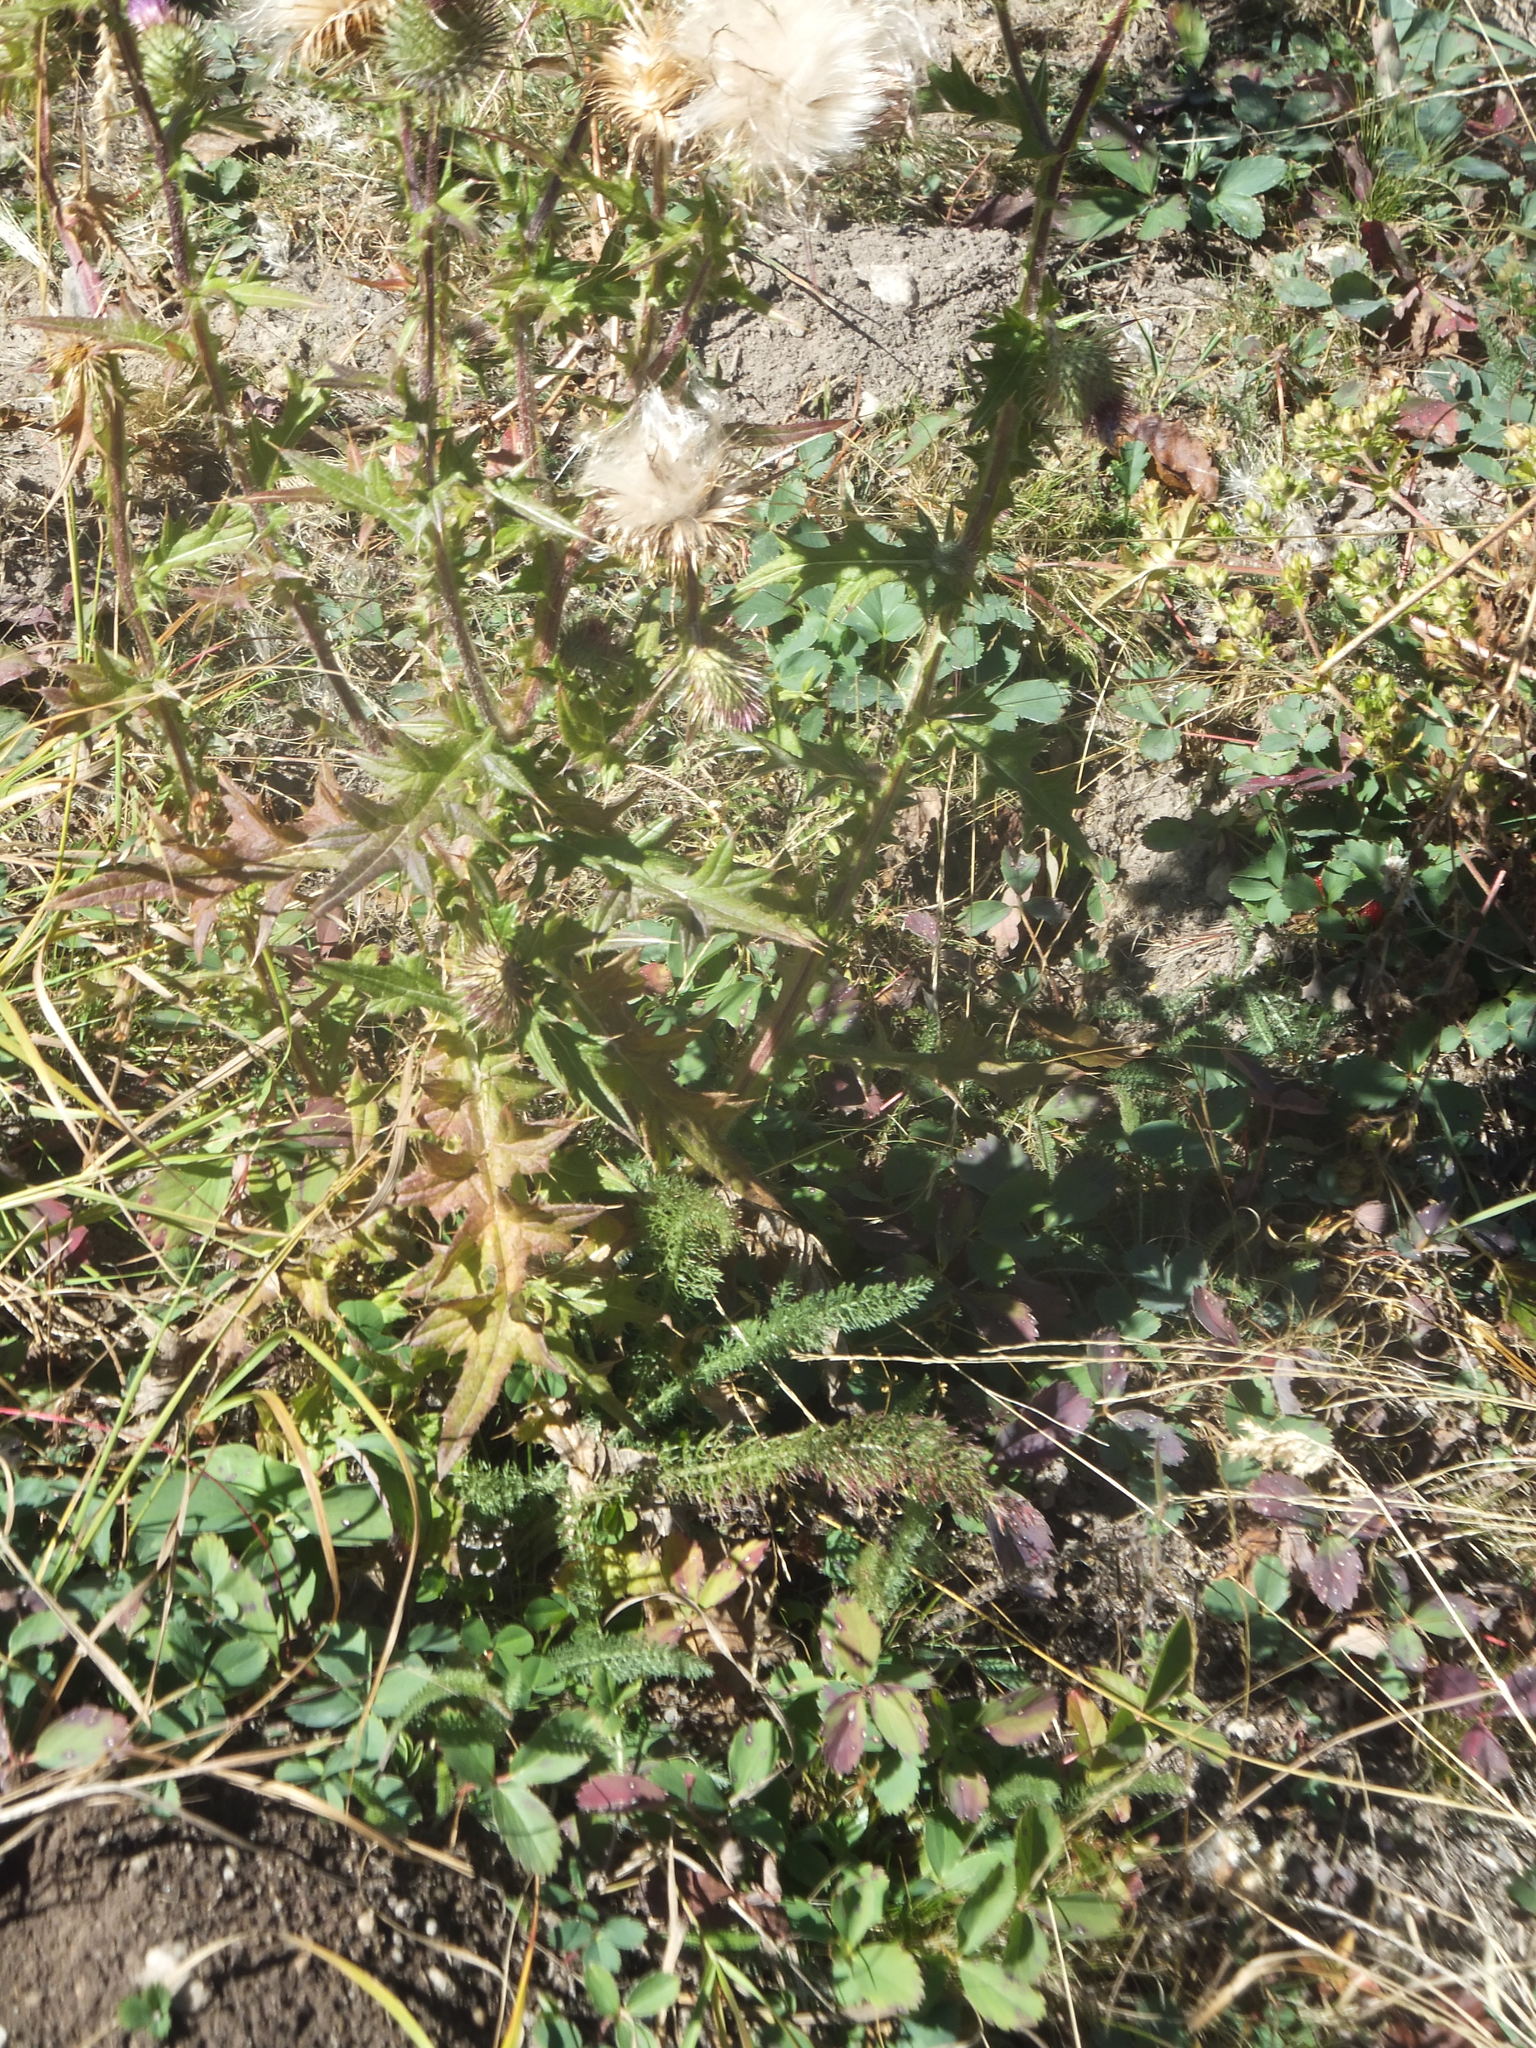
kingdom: Plantae
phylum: Tracheophyta
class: Magnoliopsida
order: Asterales
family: Asteraceae
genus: Cirsium
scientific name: Cirsium vulgare
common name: Bull thistle
